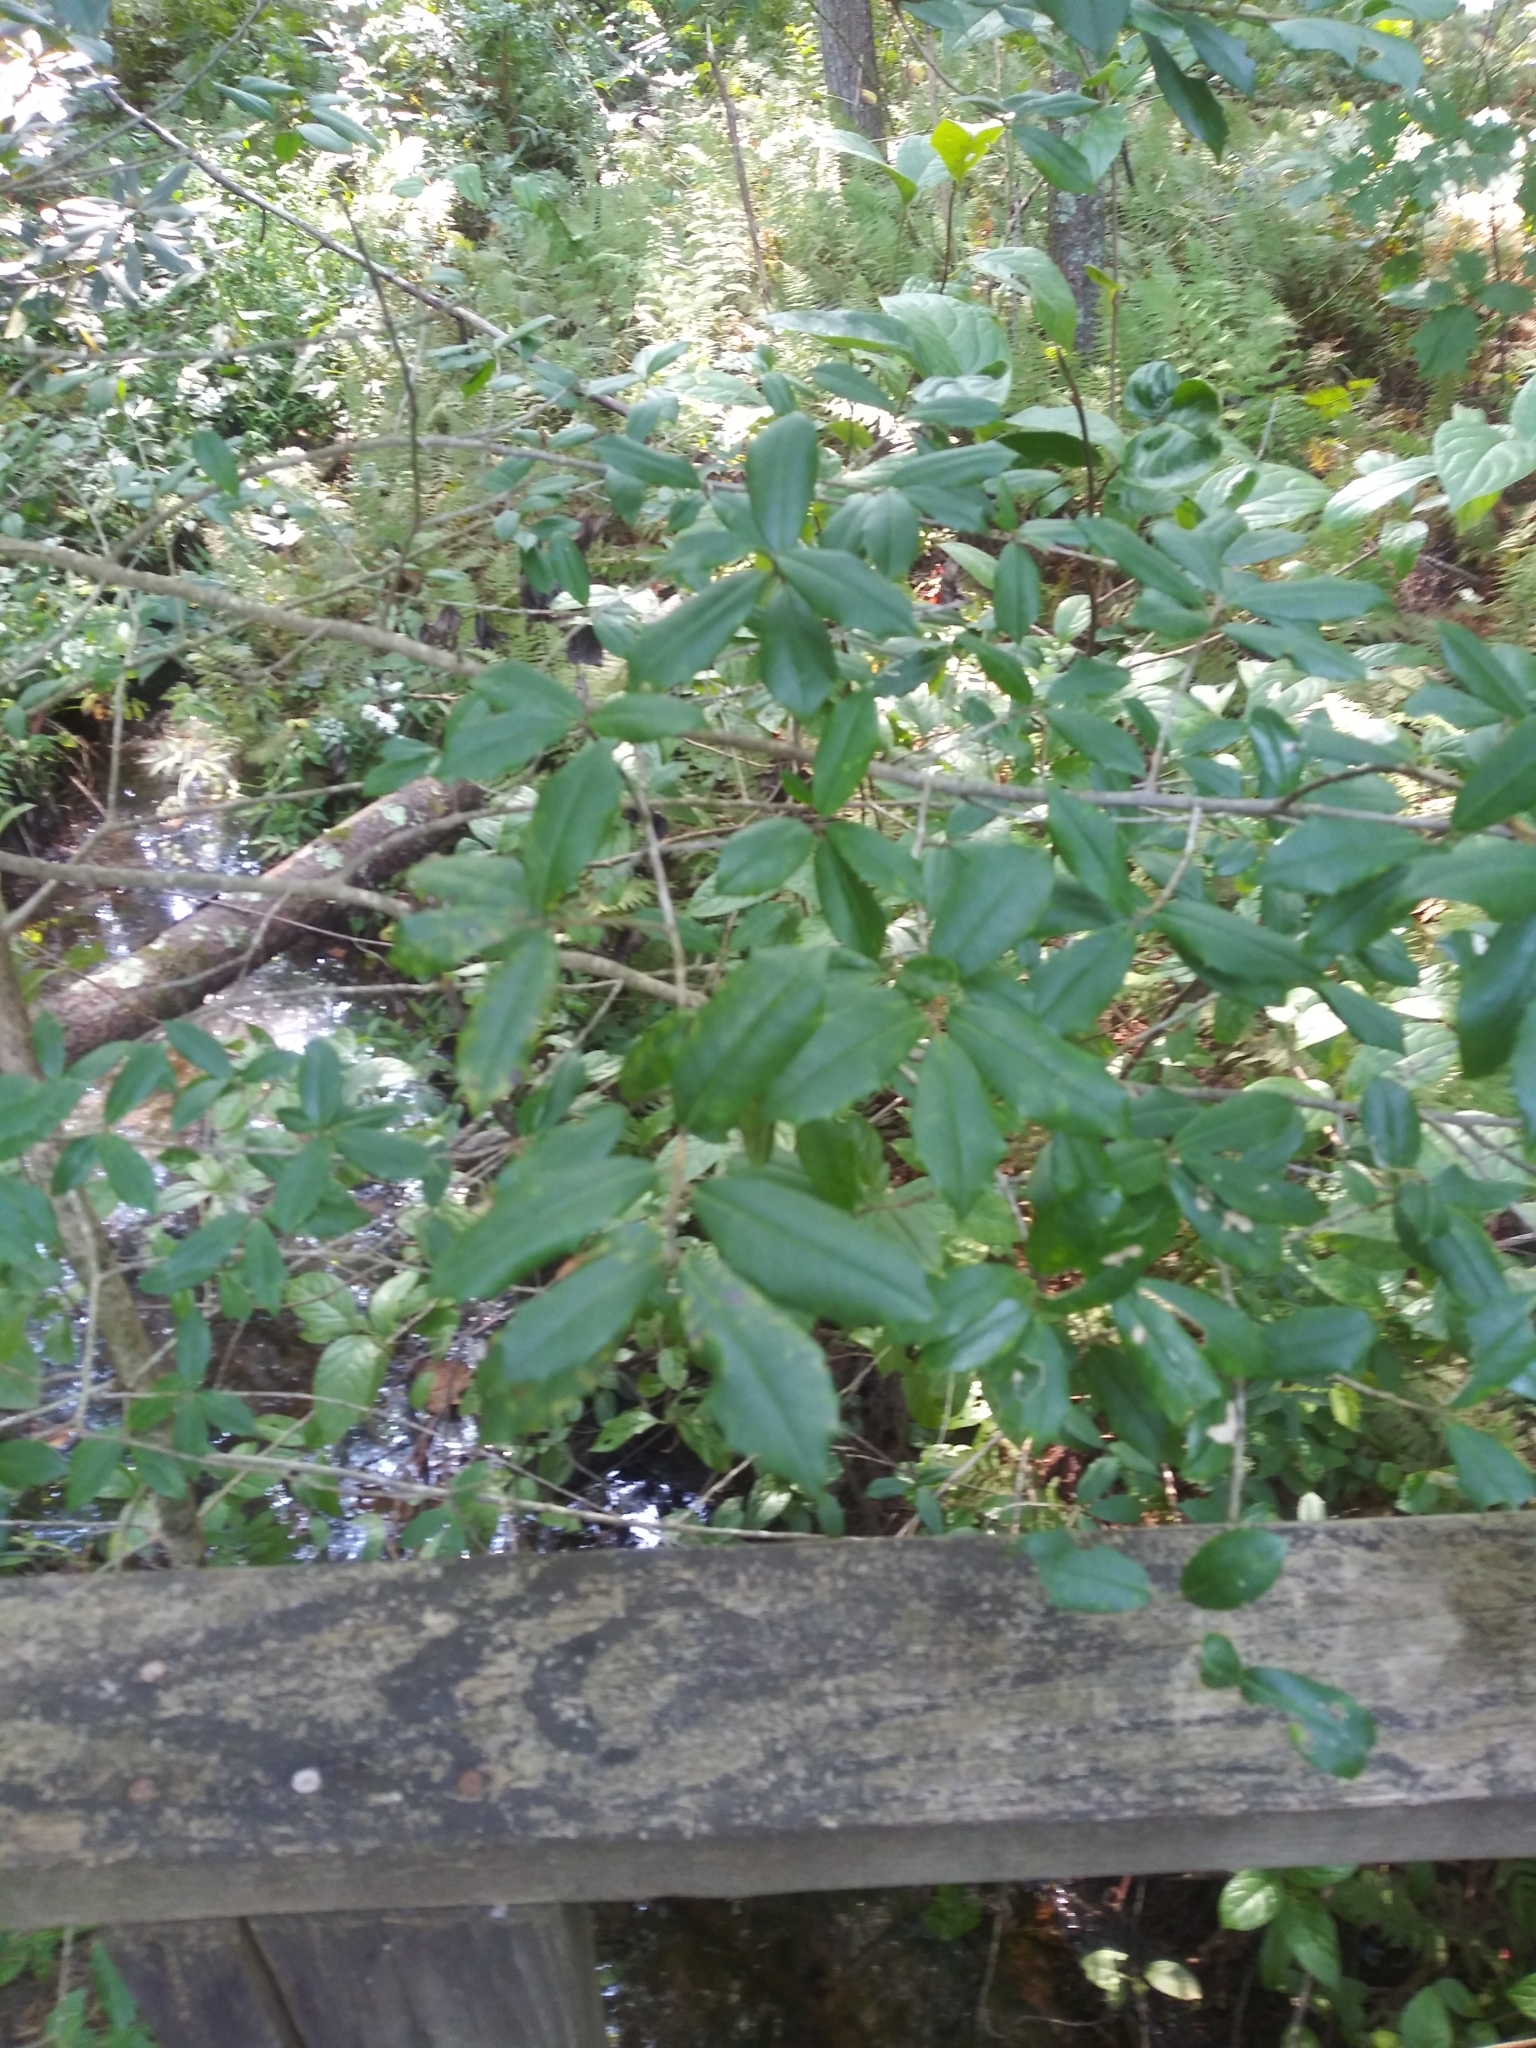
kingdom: Plantae
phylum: Tracheophyta
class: Magnoliopsida
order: Aquifoliales
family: Aquifoliaceae
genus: Ilex
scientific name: Ilex opaca
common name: American holly
